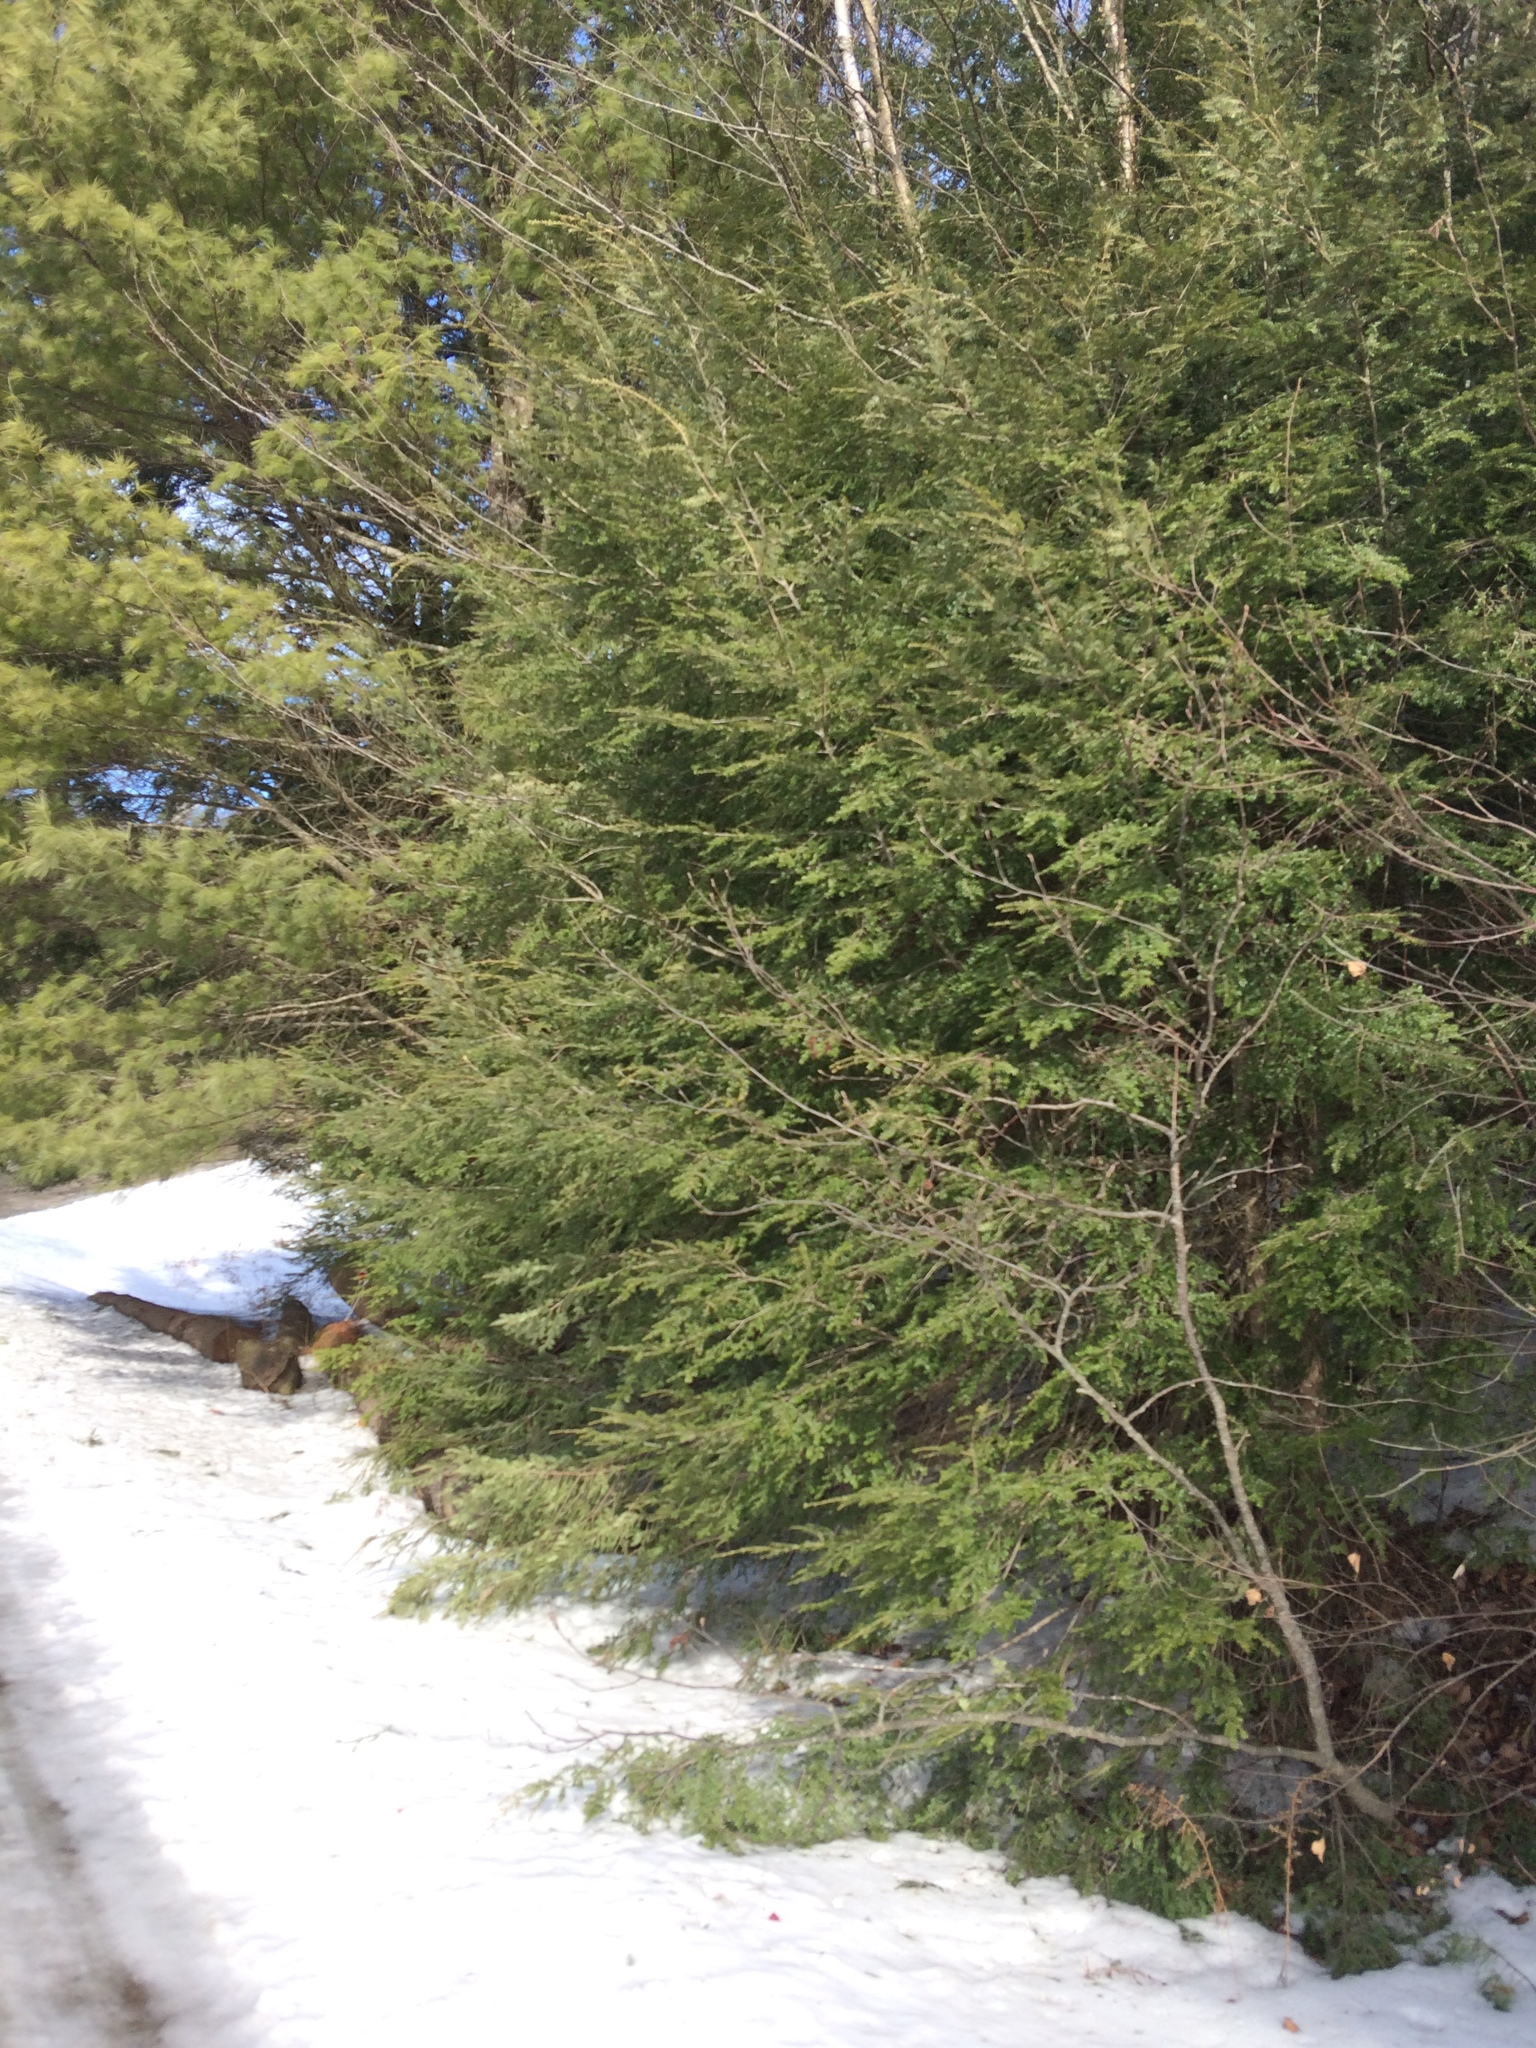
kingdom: Plantae
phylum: Tracheophyta
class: Pinopsida
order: Pinales
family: Pinaceae
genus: Tsuga
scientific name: Tsuga canadensis
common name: Eastern hemlock
